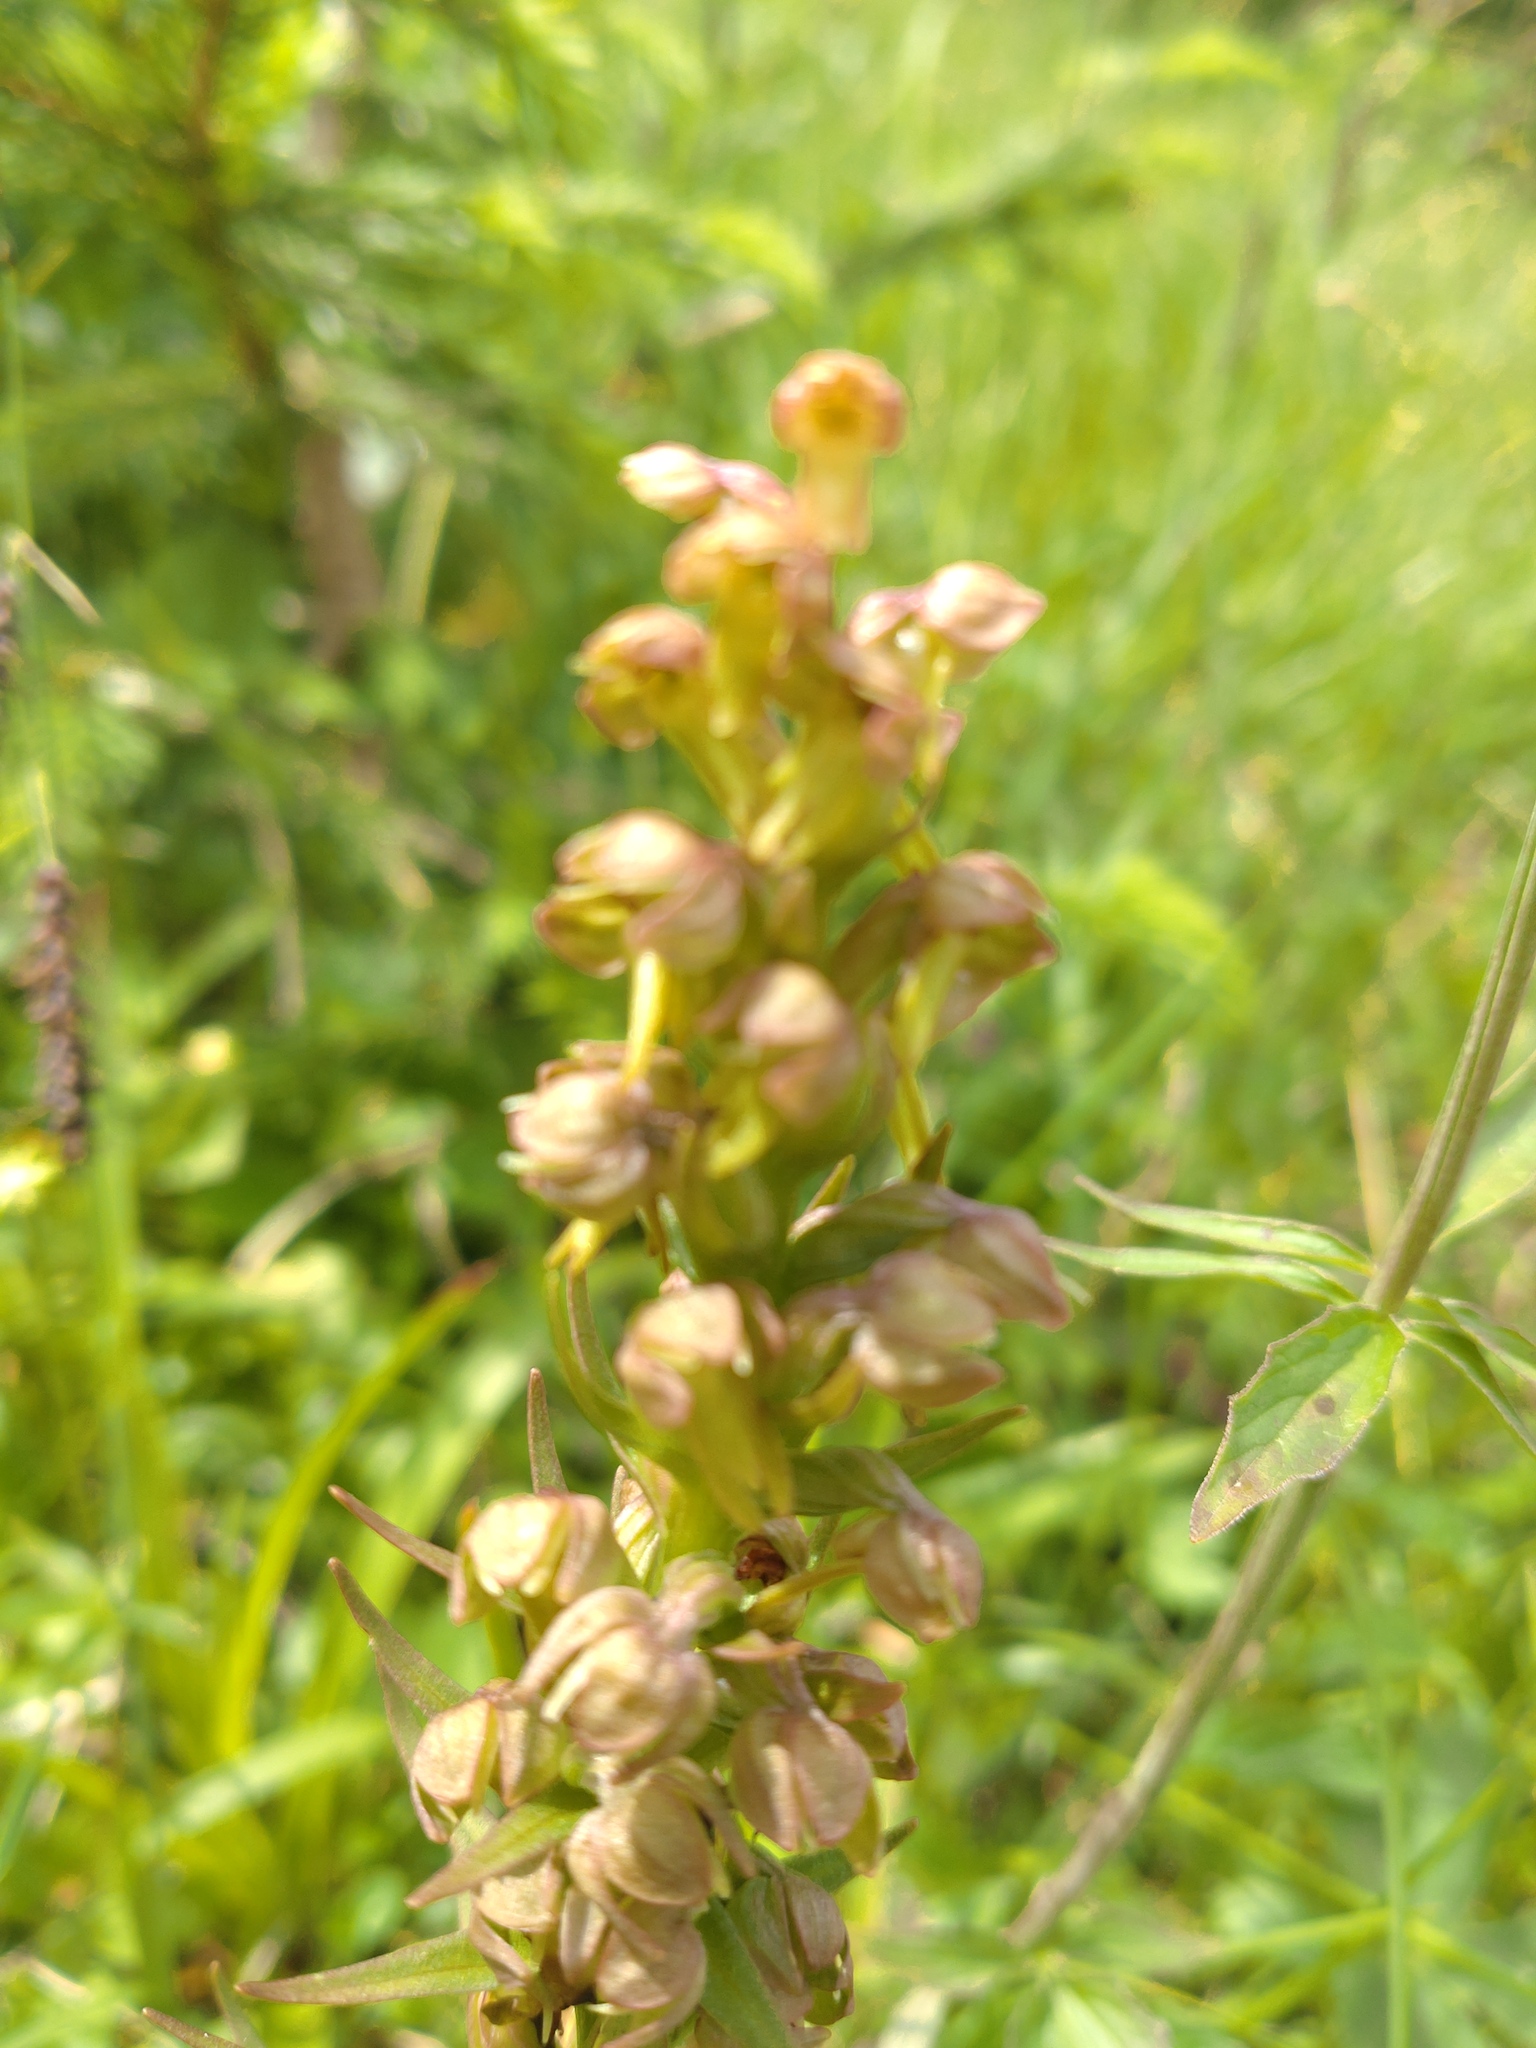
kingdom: Plantae
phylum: Tracheophyta
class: Liliopsida
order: Asparagales
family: Orchidaceae
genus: Dactylorhiza
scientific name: Dactylorhiza viridis
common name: Longbract frog orchid
